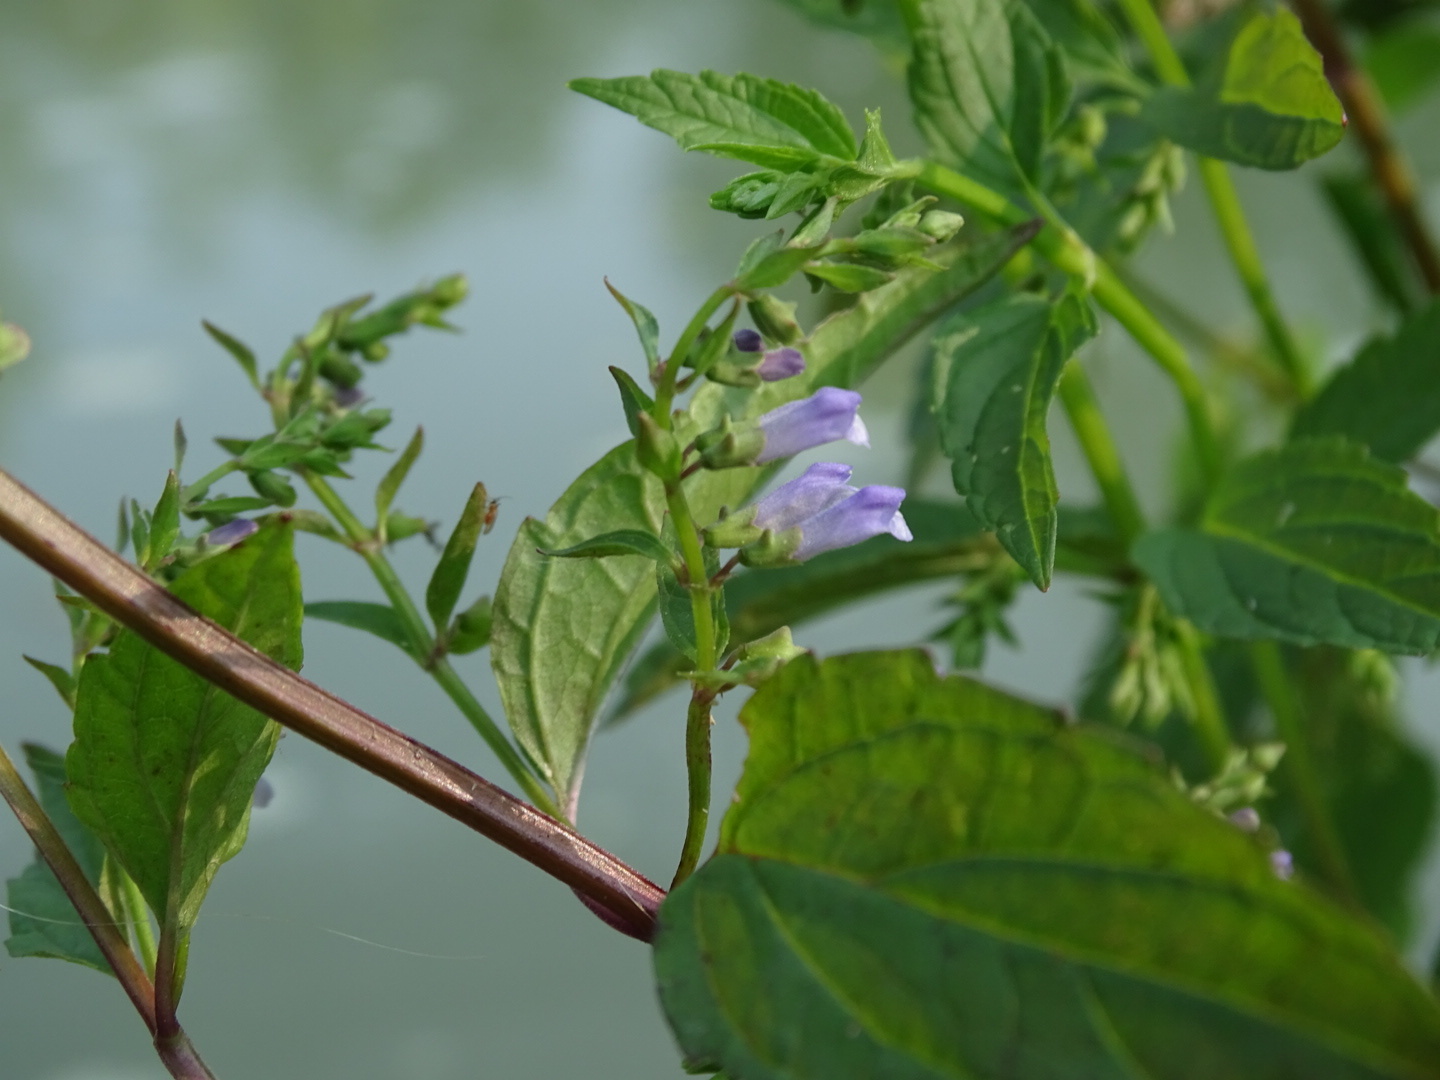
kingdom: Plantae
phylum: Tracheophyta
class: Magnoliopsida
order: Lamiales
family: Lamiaceae
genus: Scutellaria
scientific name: Scutellaria lateriflora
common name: Blue skullcap
